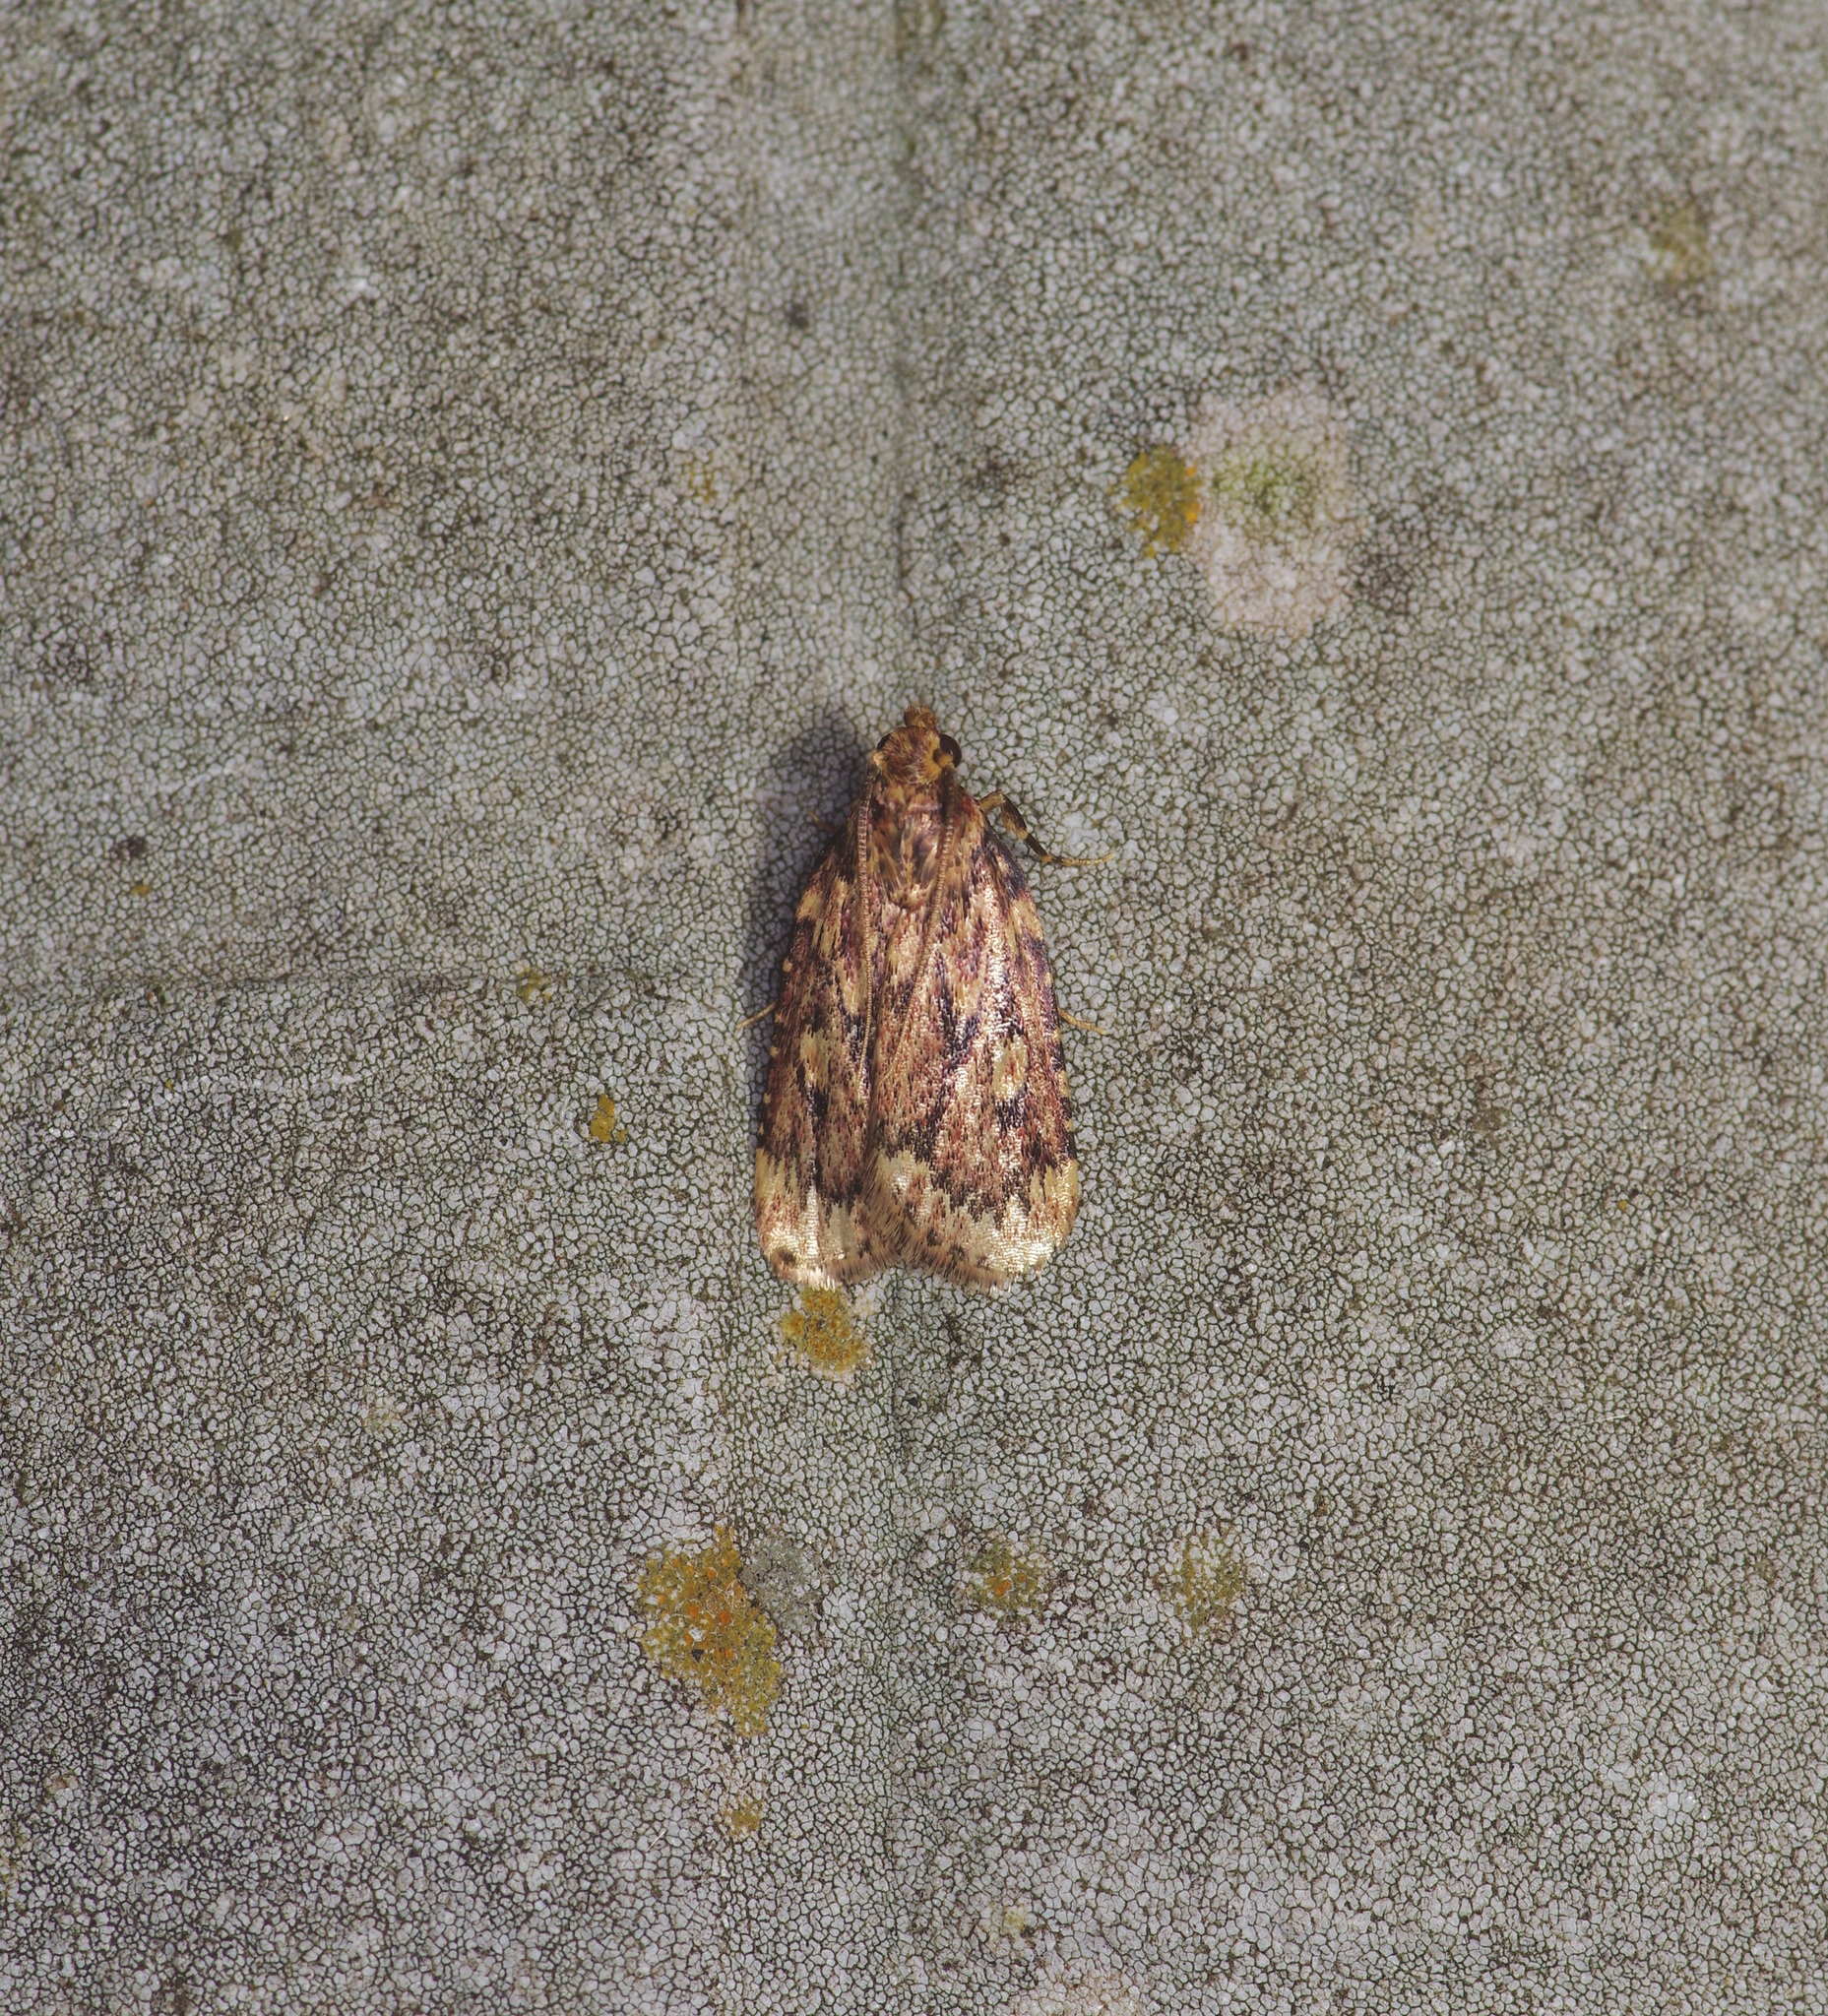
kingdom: Animalia
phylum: Arthropoda
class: Insecta
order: Lepidoptera
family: Pyralidae
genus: Aglossa
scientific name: Aglossa cuprina
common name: Grease moth
